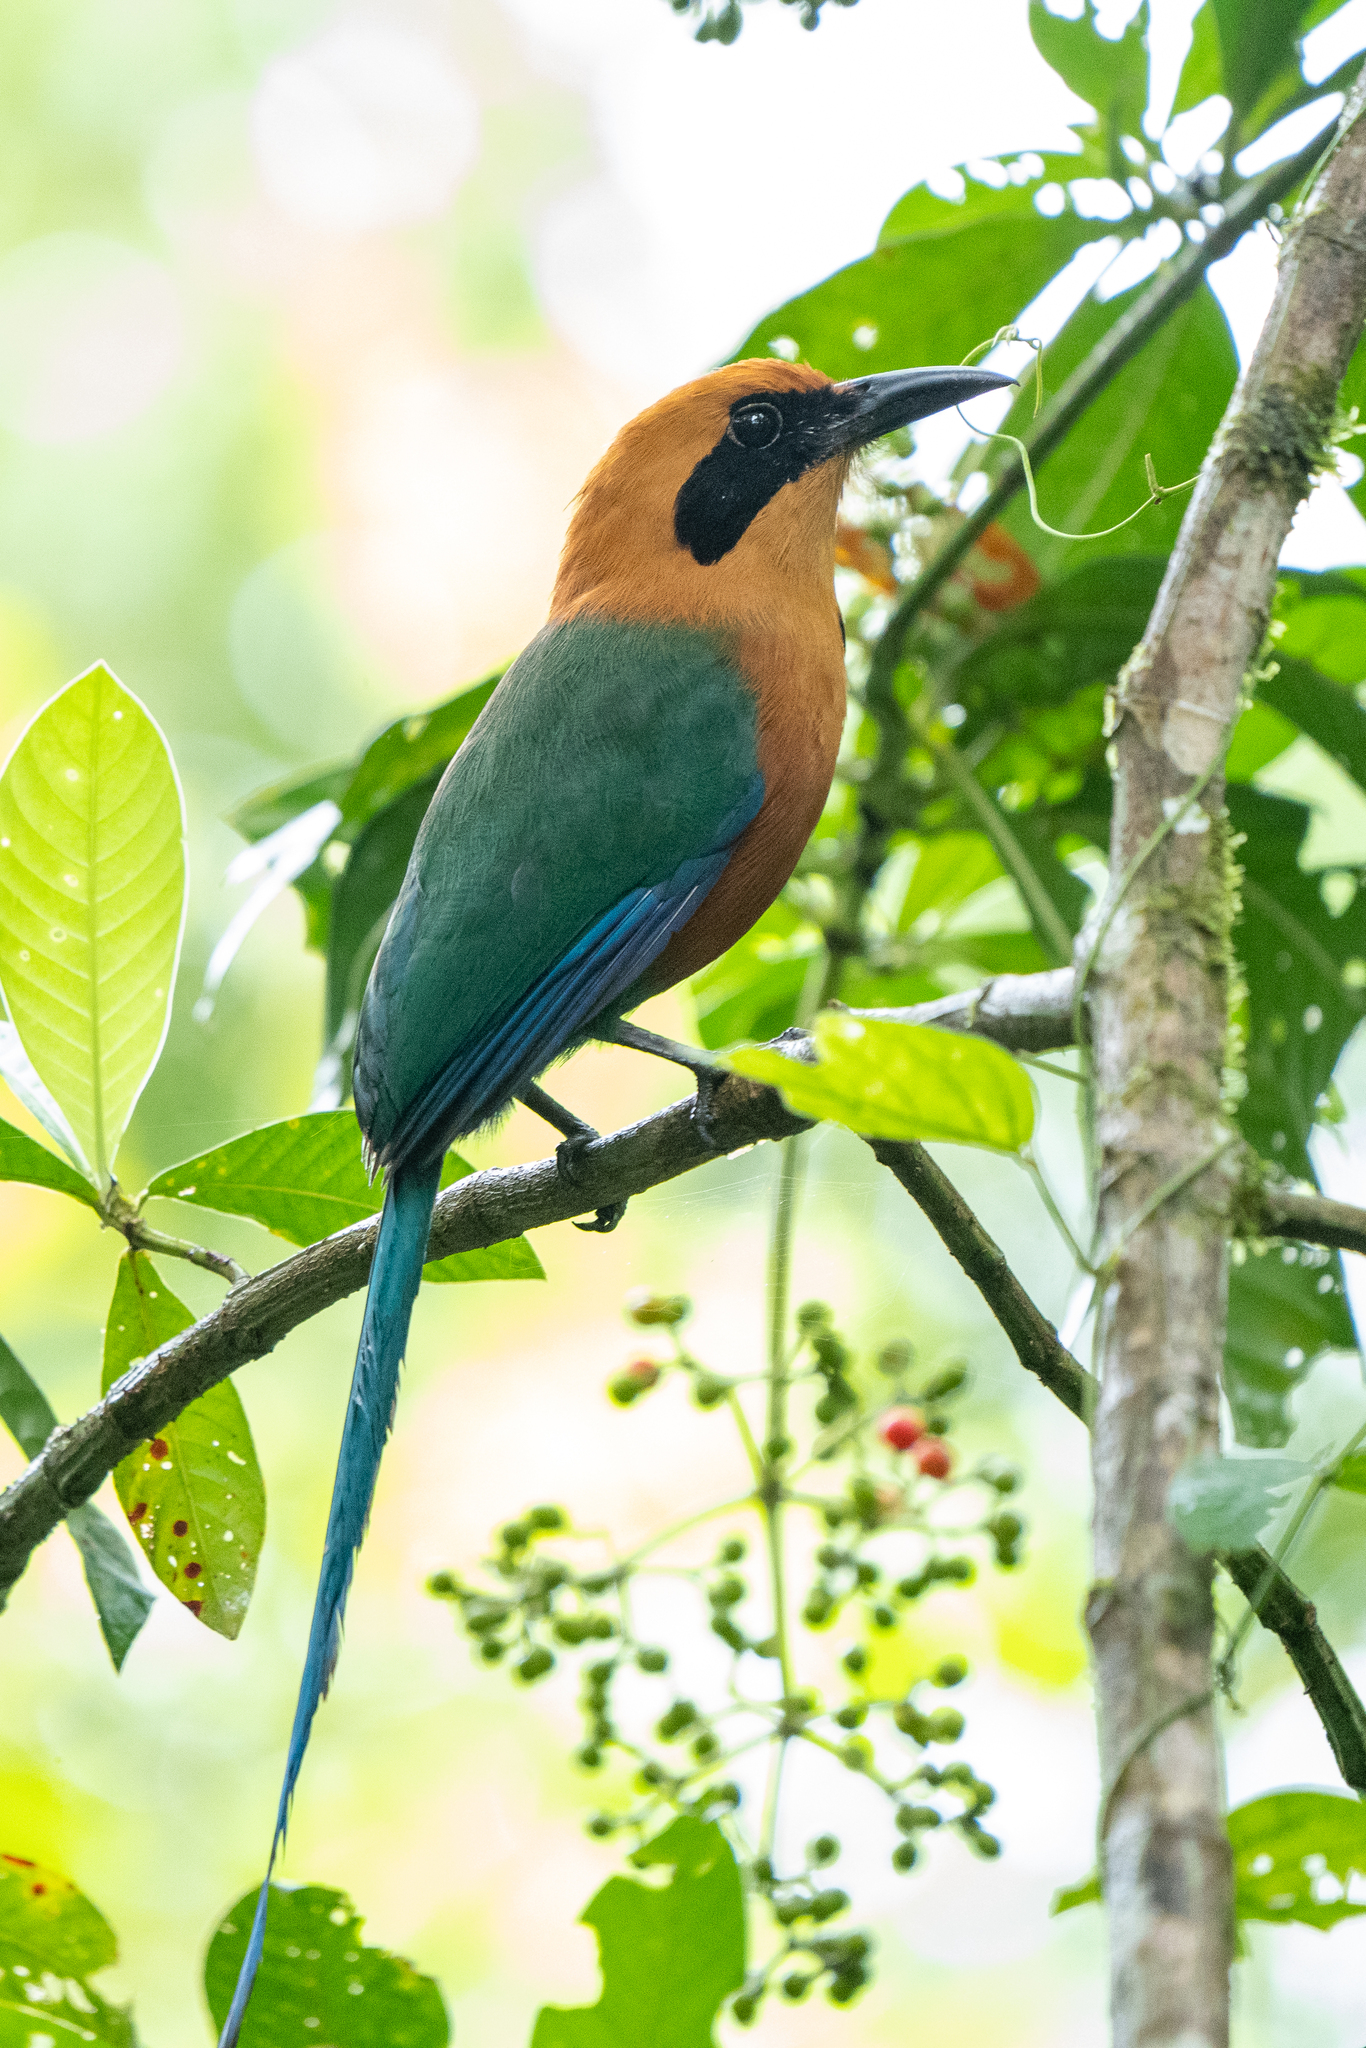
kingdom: Animalia
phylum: Chordata
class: Aves
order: Coraciiformes
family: Momotidae
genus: Baryphthengus
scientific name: Baryphthengus martii
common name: Rufous motmot
